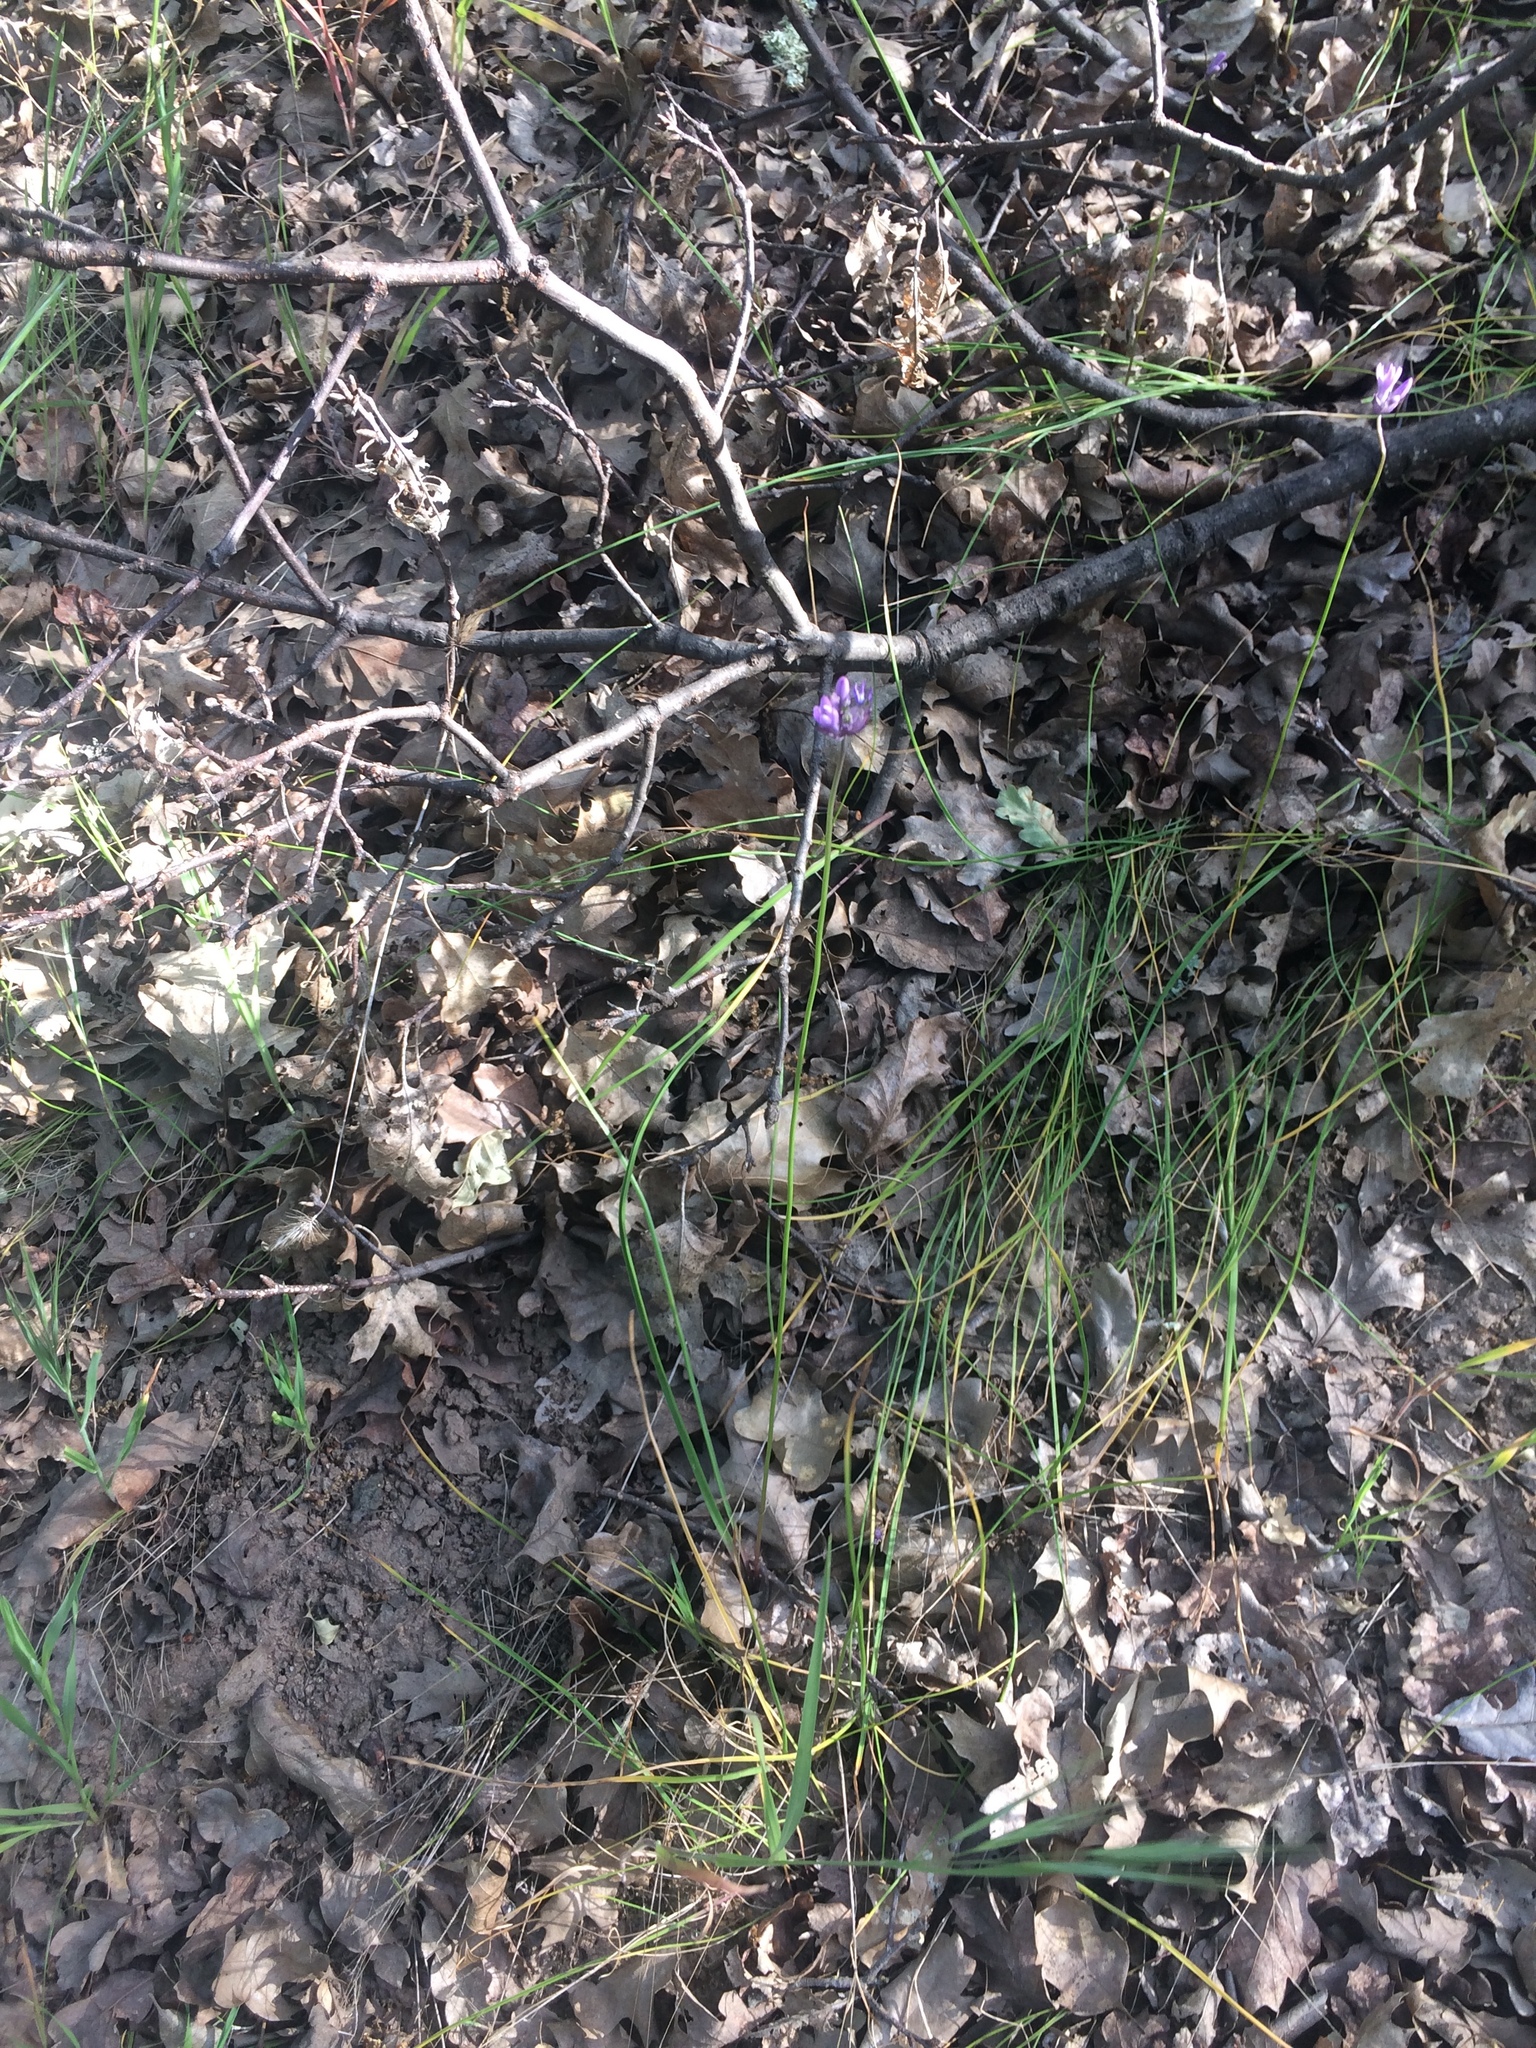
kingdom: Plantae
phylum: Tracheophyta
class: Liliopsida
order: Asparagales
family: Asparagaceae
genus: Dichelostemma
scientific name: Dichelostemma congestum
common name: Fork-tooth ookow
